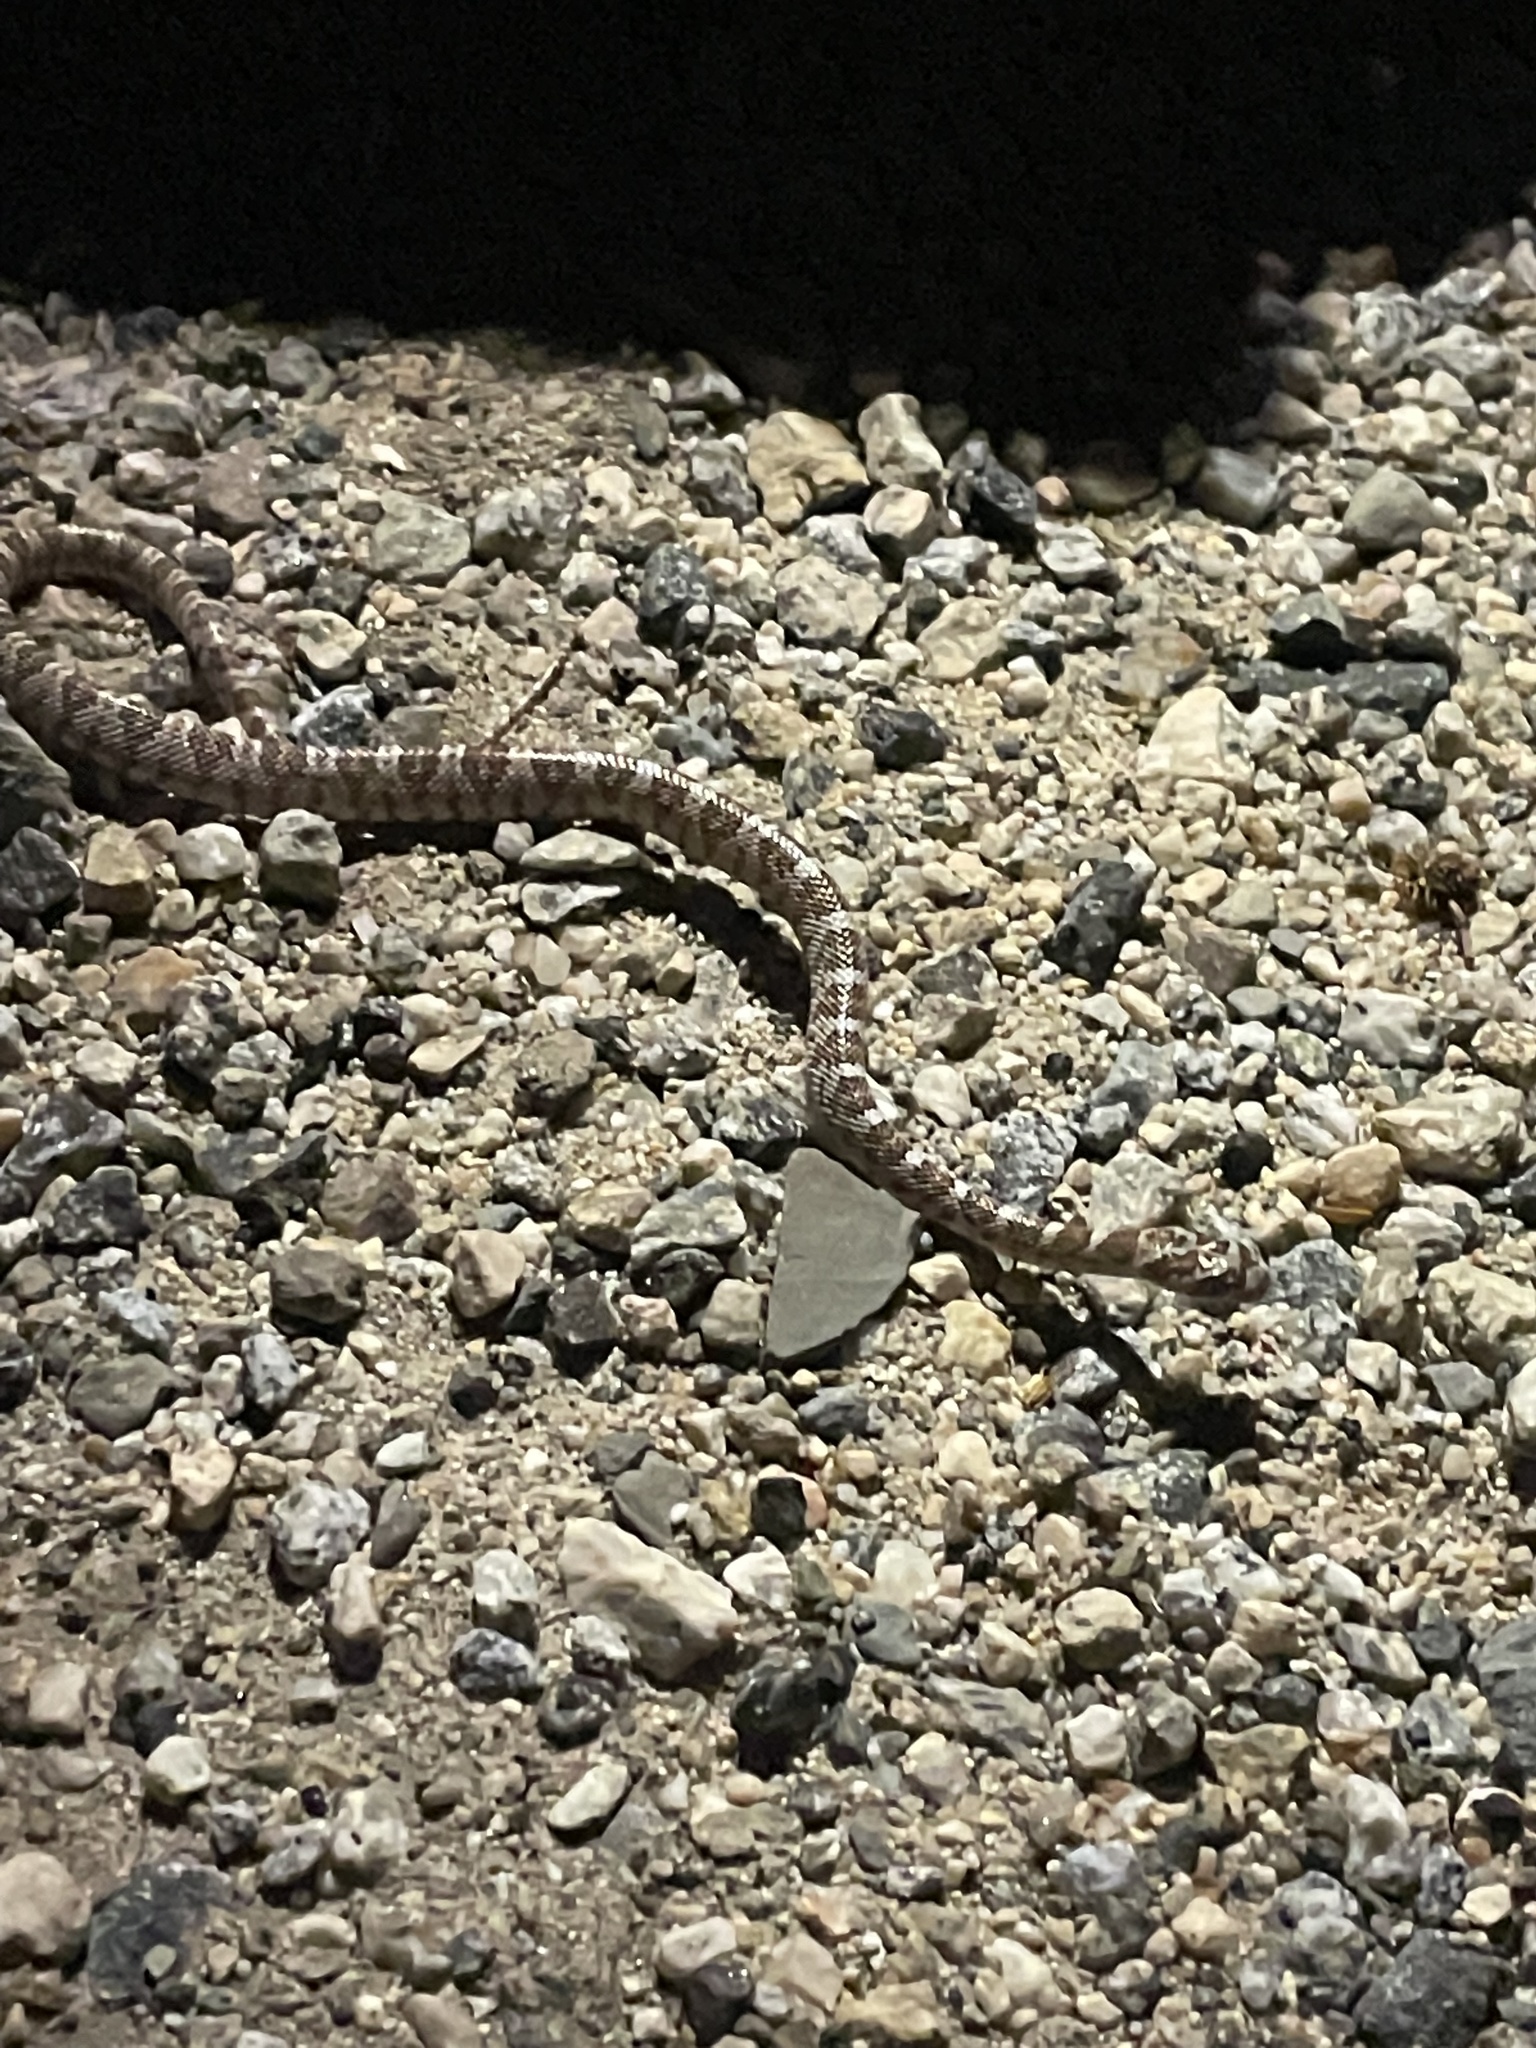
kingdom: Animalia
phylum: Chordata
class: Squamata
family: Colubridae
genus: Trimorphodon
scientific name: Trimorphodon lyrophanes
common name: Baja california lyre snake
